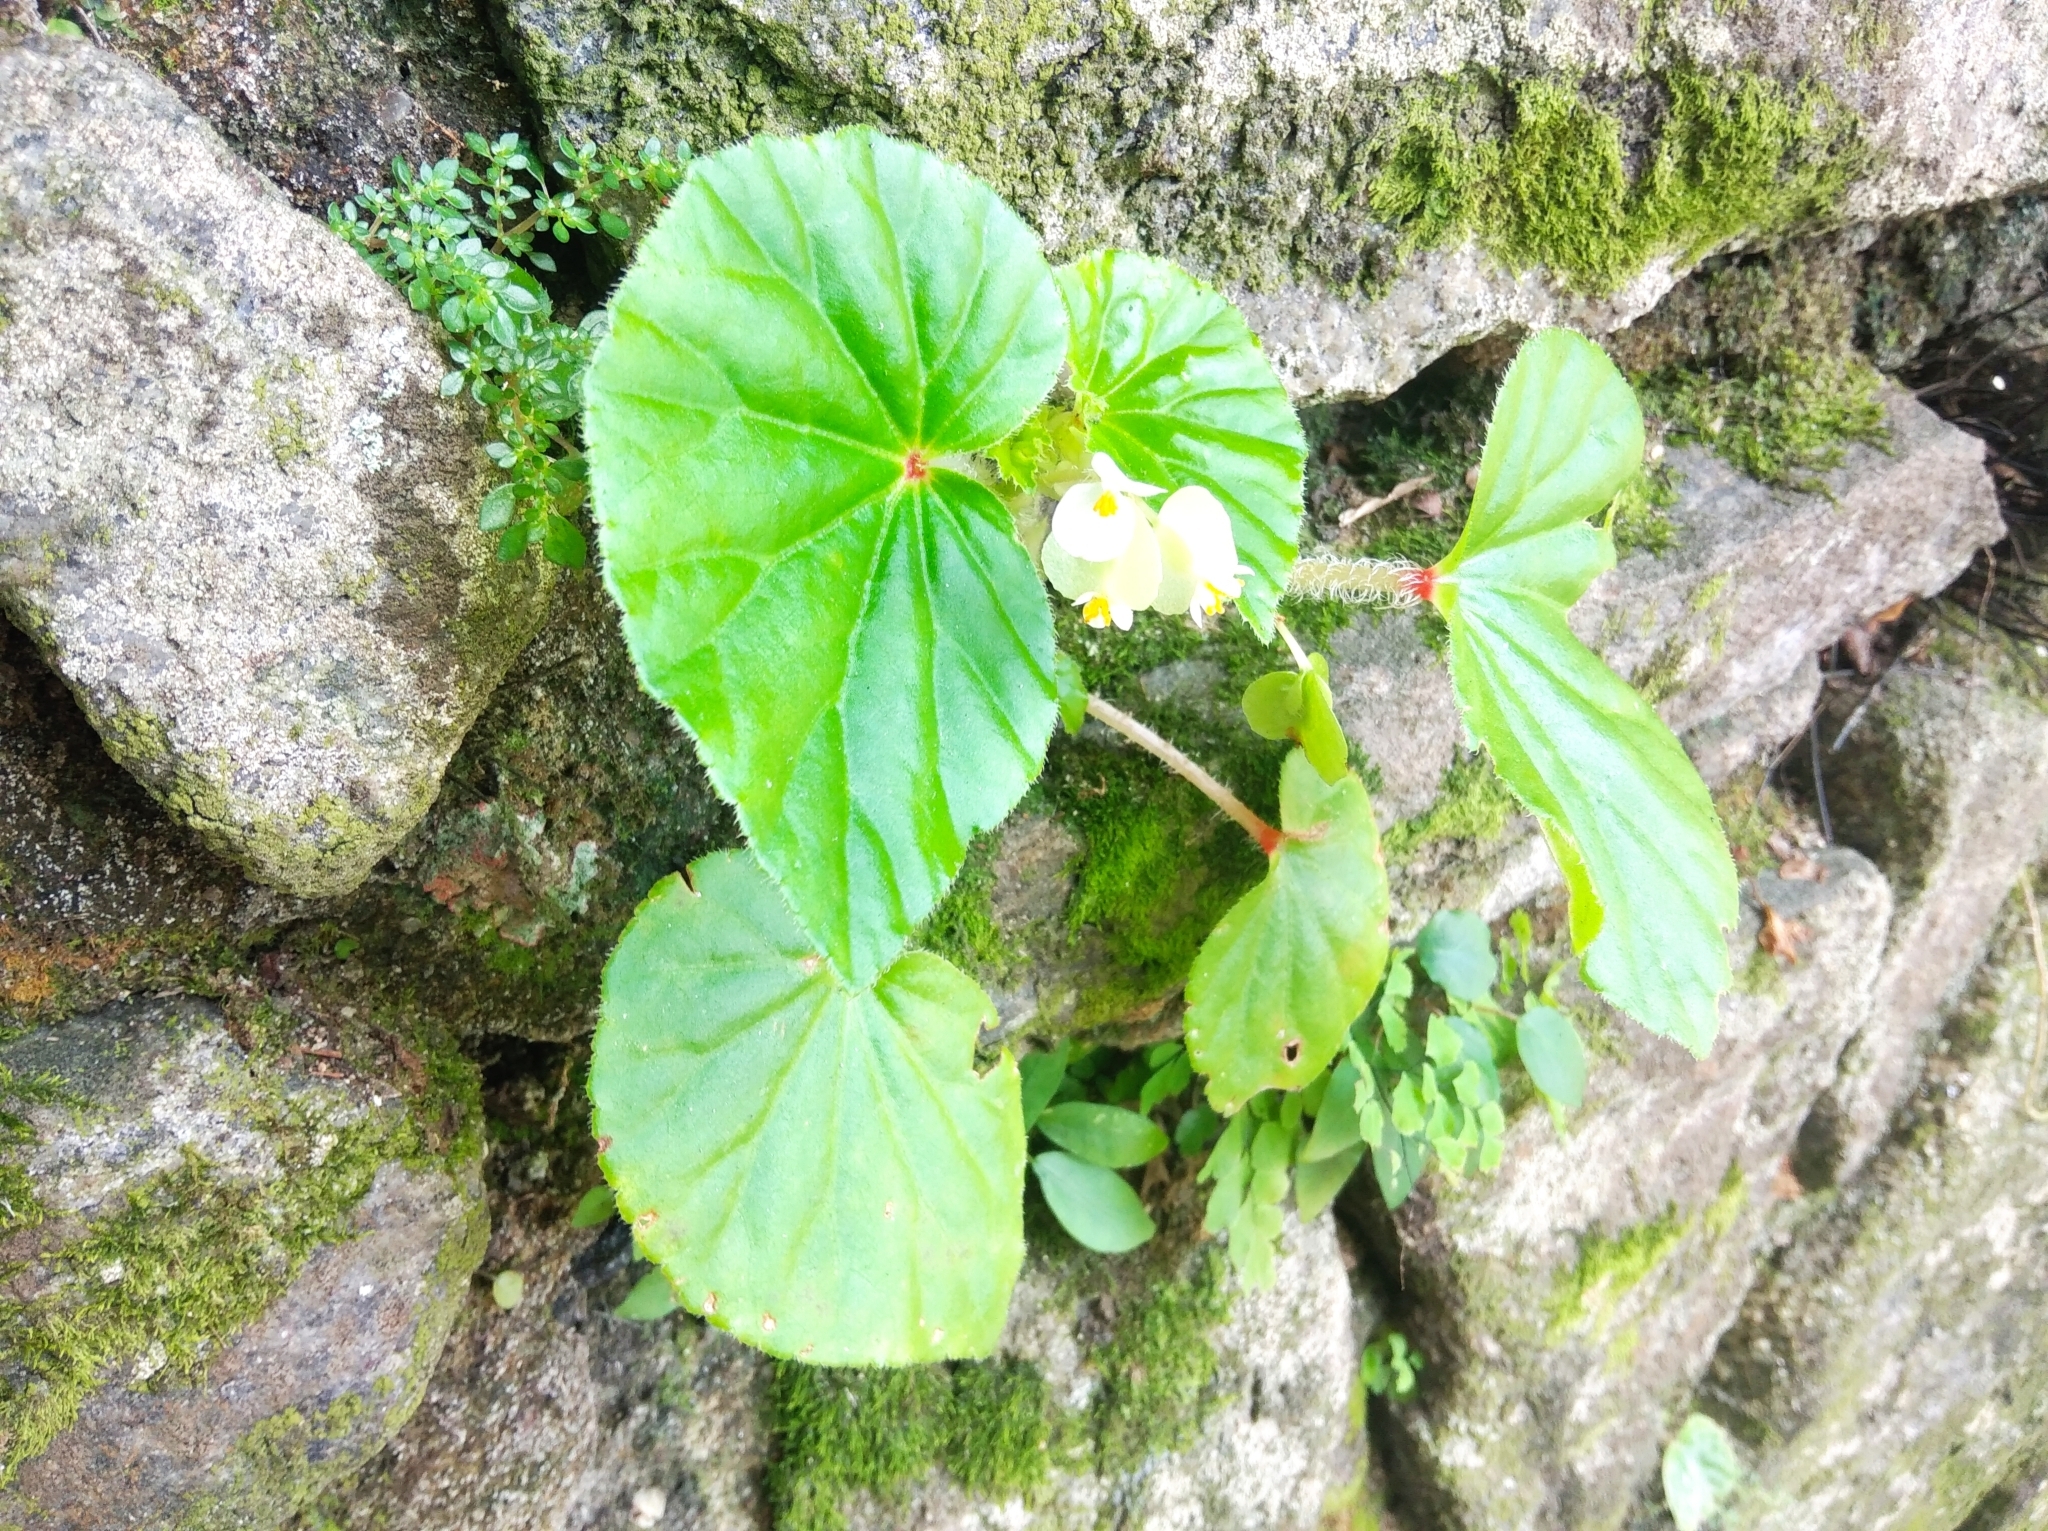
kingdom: Plantae
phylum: Tracheophyta
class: Magnoliopsida
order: Cucurbitales
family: Begoniaceae
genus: Begonia
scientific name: Begonia hirtella
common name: Brazilian begonia
